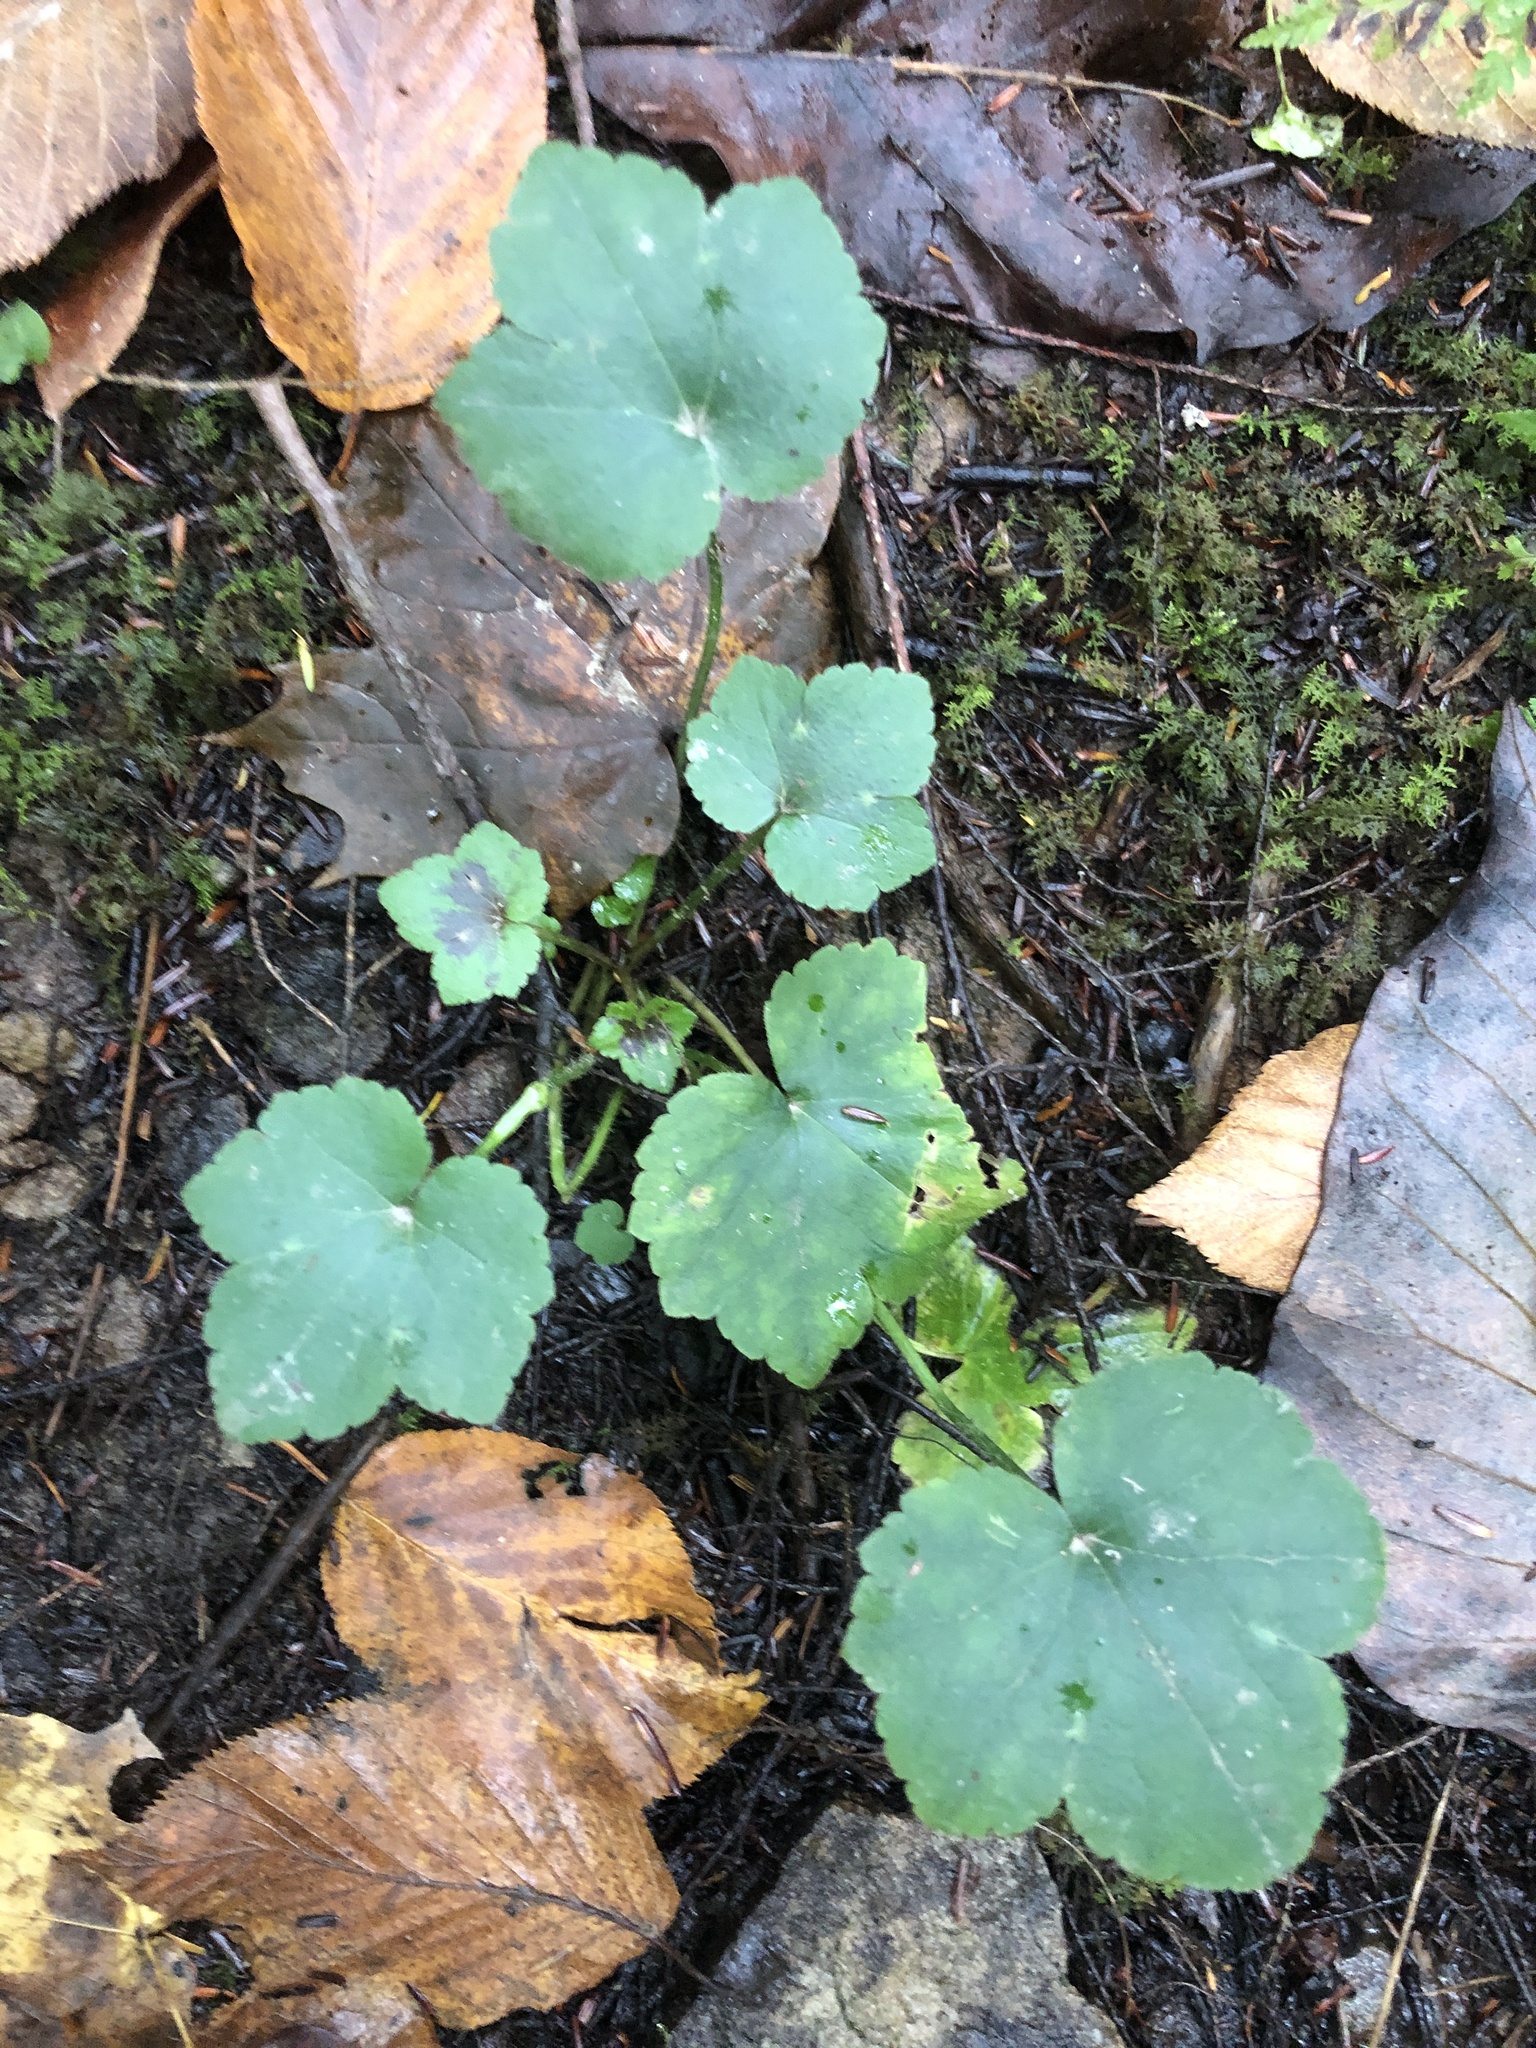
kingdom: Plantae
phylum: Tracheophyta
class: Magnoliopsida
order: Ranunculales
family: Ranunculaceae
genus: Ranunculus
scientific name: Ranunculus recurvatus
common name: Blisterwort
